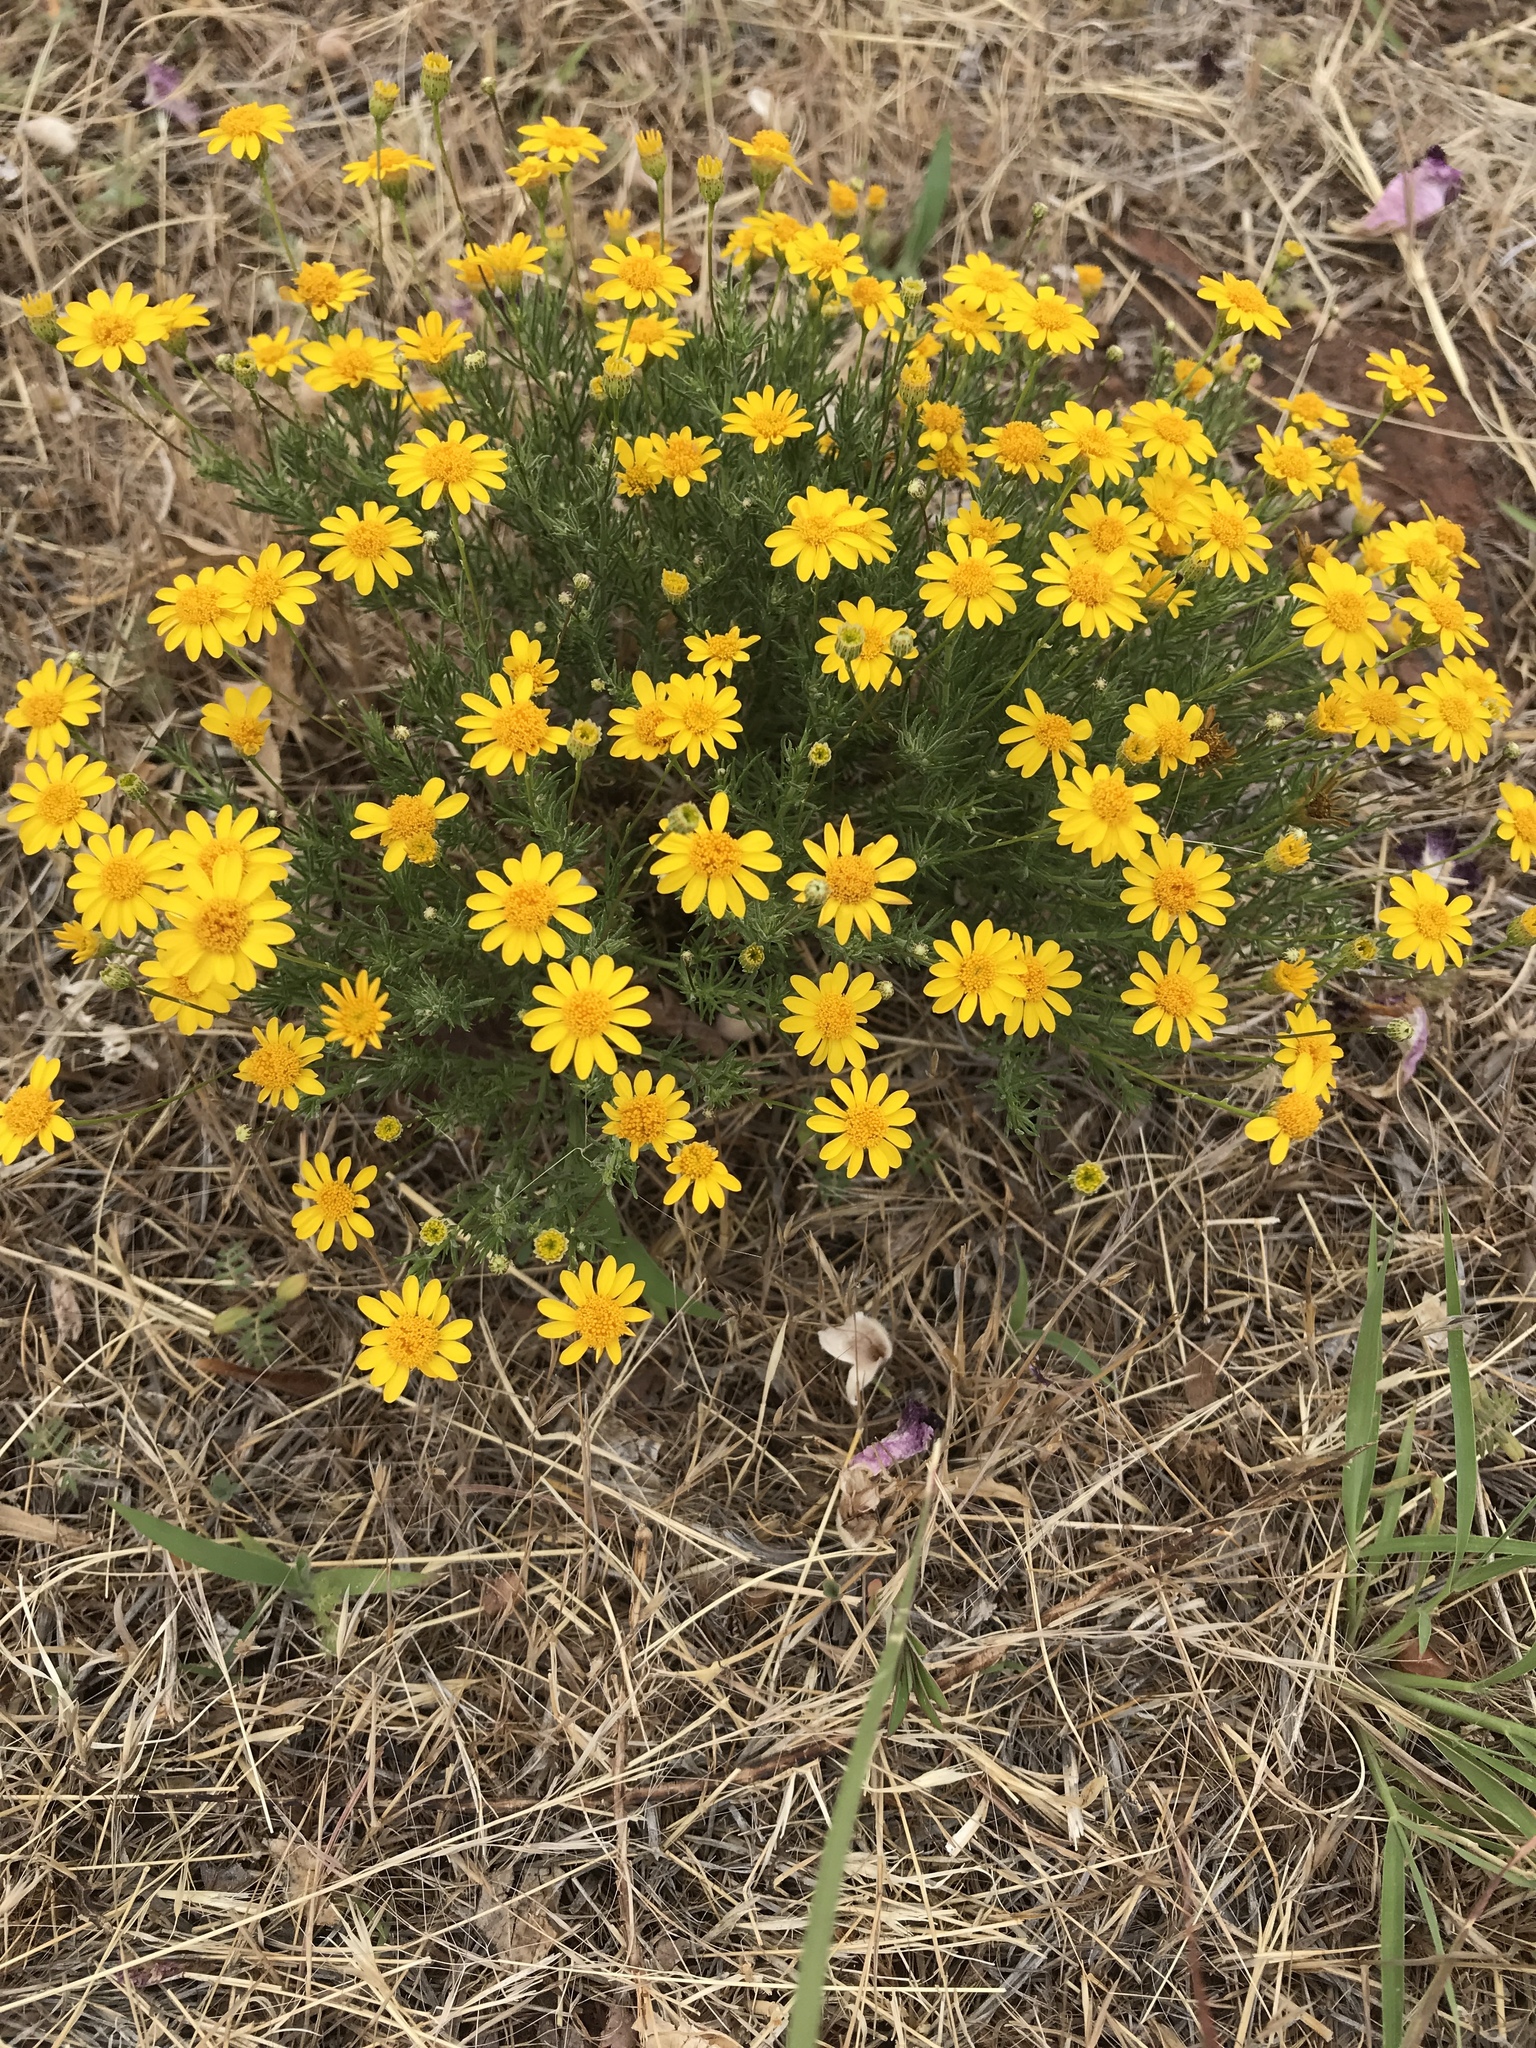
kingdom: Plantae
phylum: Tracheophyta
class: Magnoliopsida
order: Asterales
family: Asteraceae
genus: Thymophylla
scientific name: Thymophylla pentachaeta
